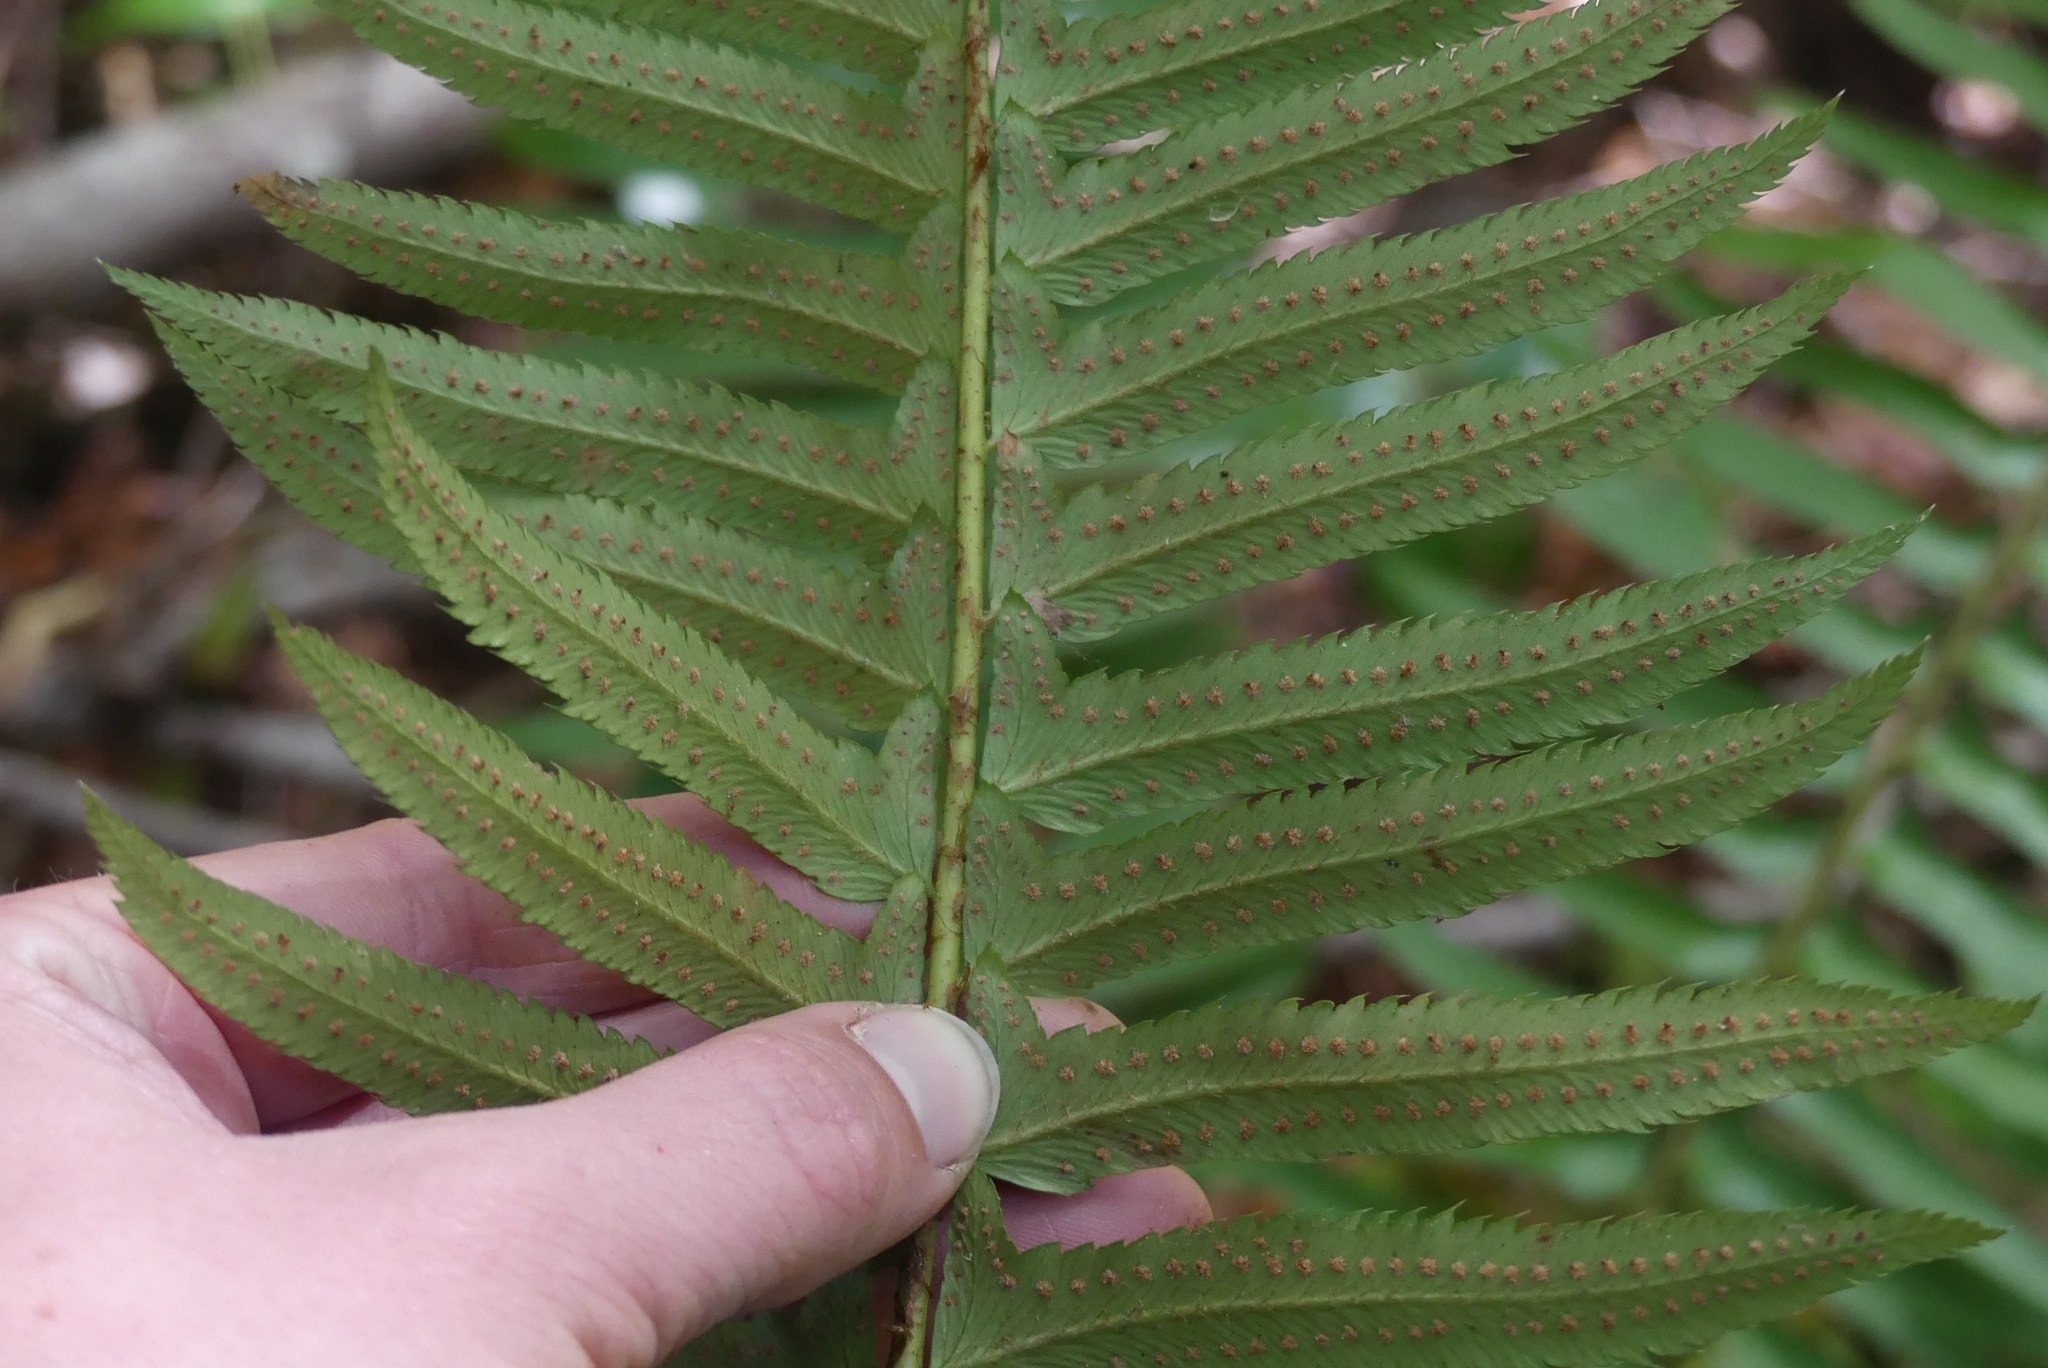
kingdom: Plantae
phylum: Tracheophyta
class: Polypodiopsida
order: Polypodiales
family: Dryopteridaceae
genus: Polystichum
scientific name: Polystichum munitum
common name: Western sword-fern
